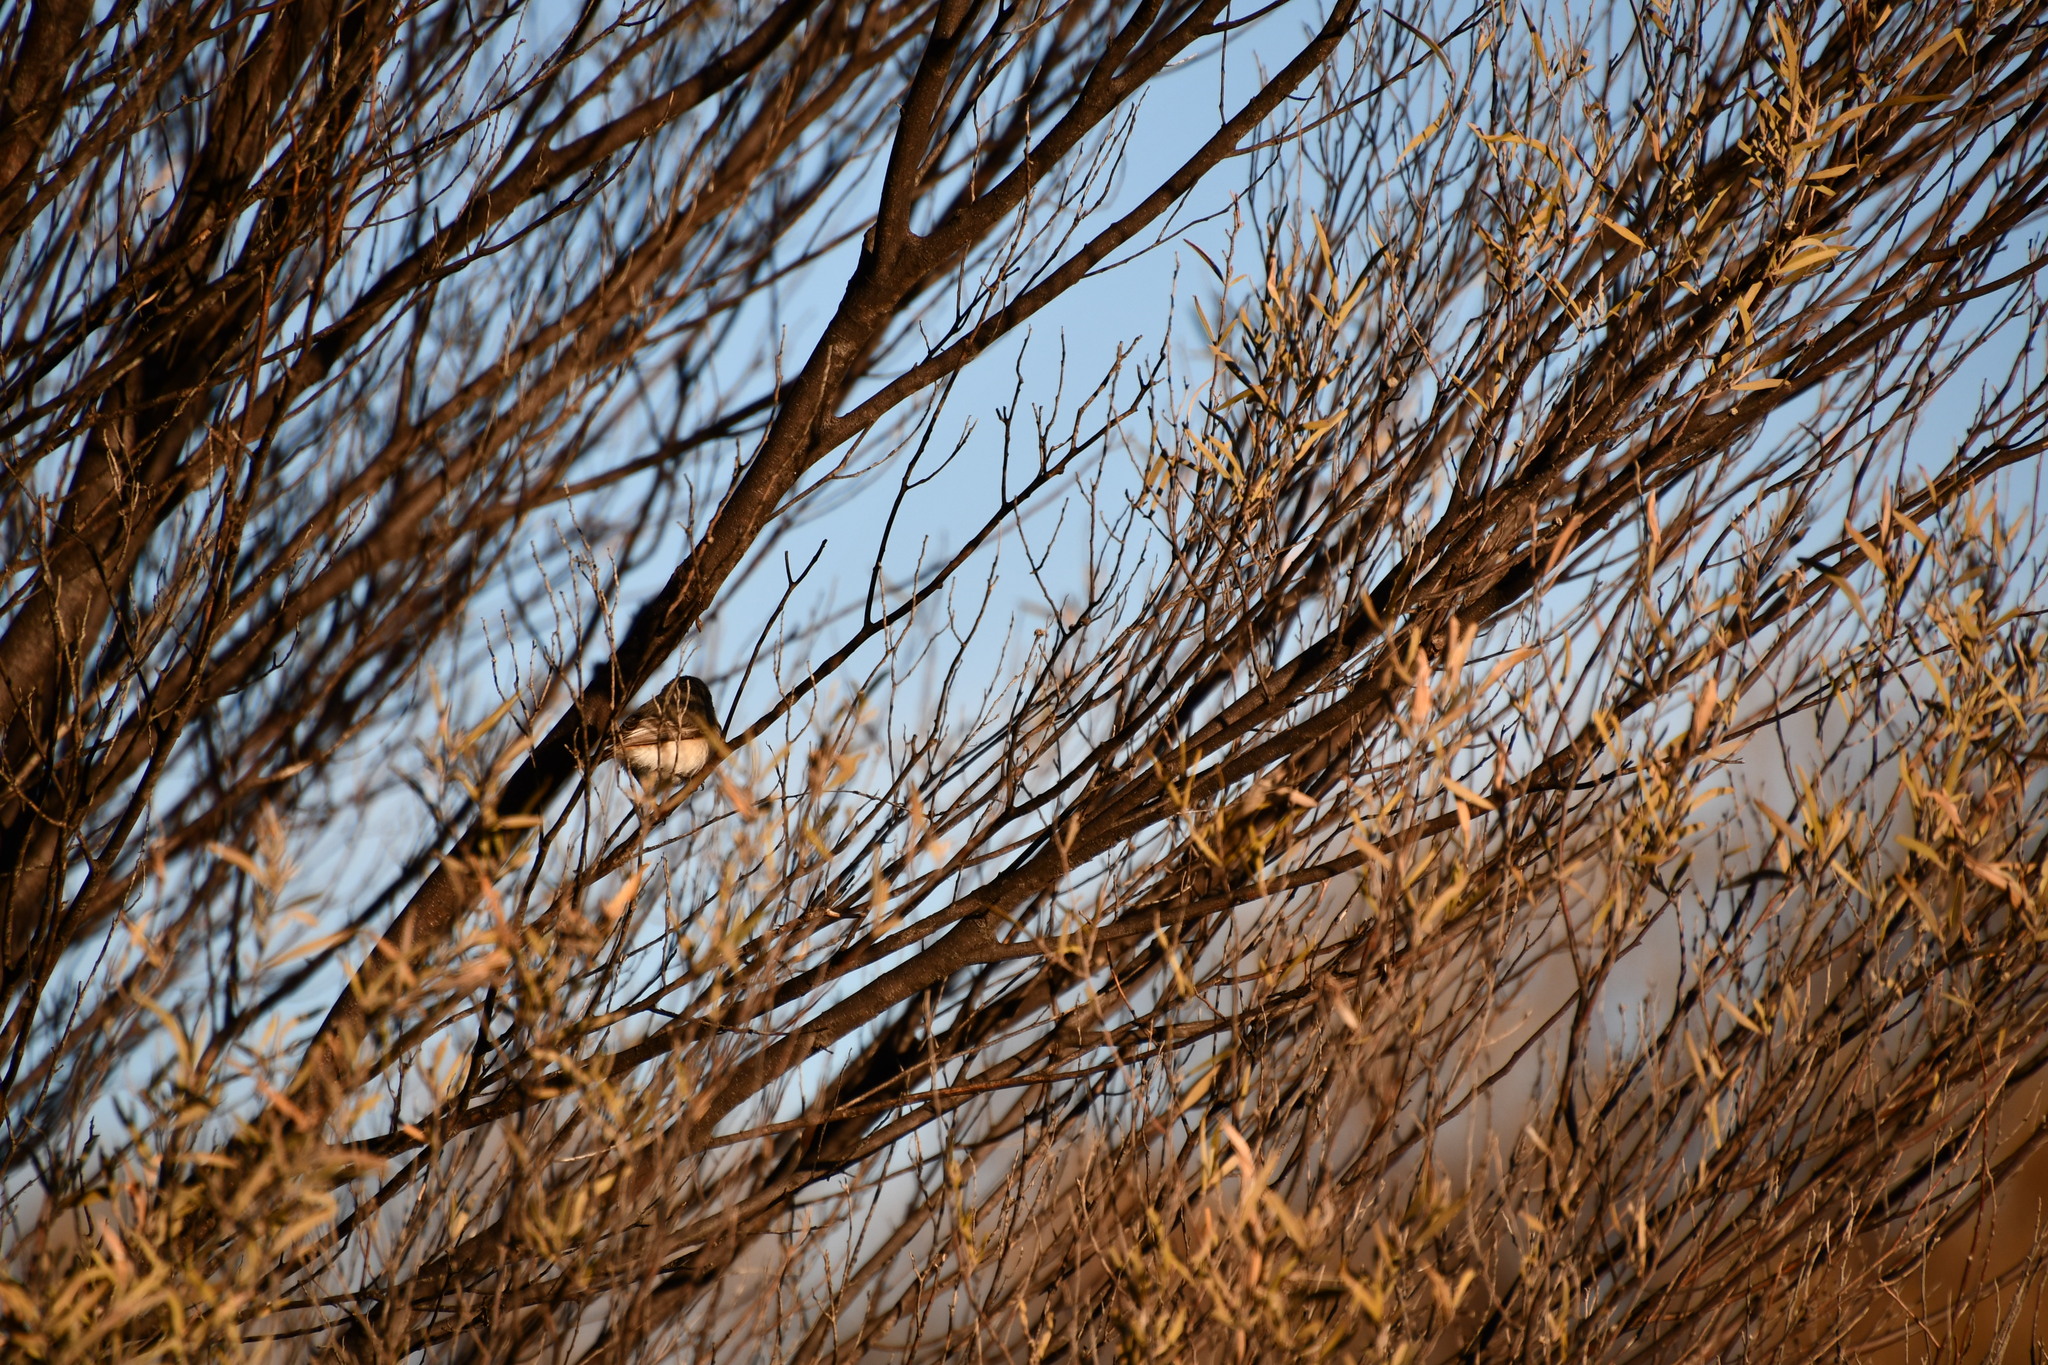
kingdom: Animalia
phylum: Chordata
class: Aves
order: Passeriformes
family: Acanthizidae
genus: Acanthiza
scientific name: Acanthiza robustirostris
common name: Slaty-backed thornbill
